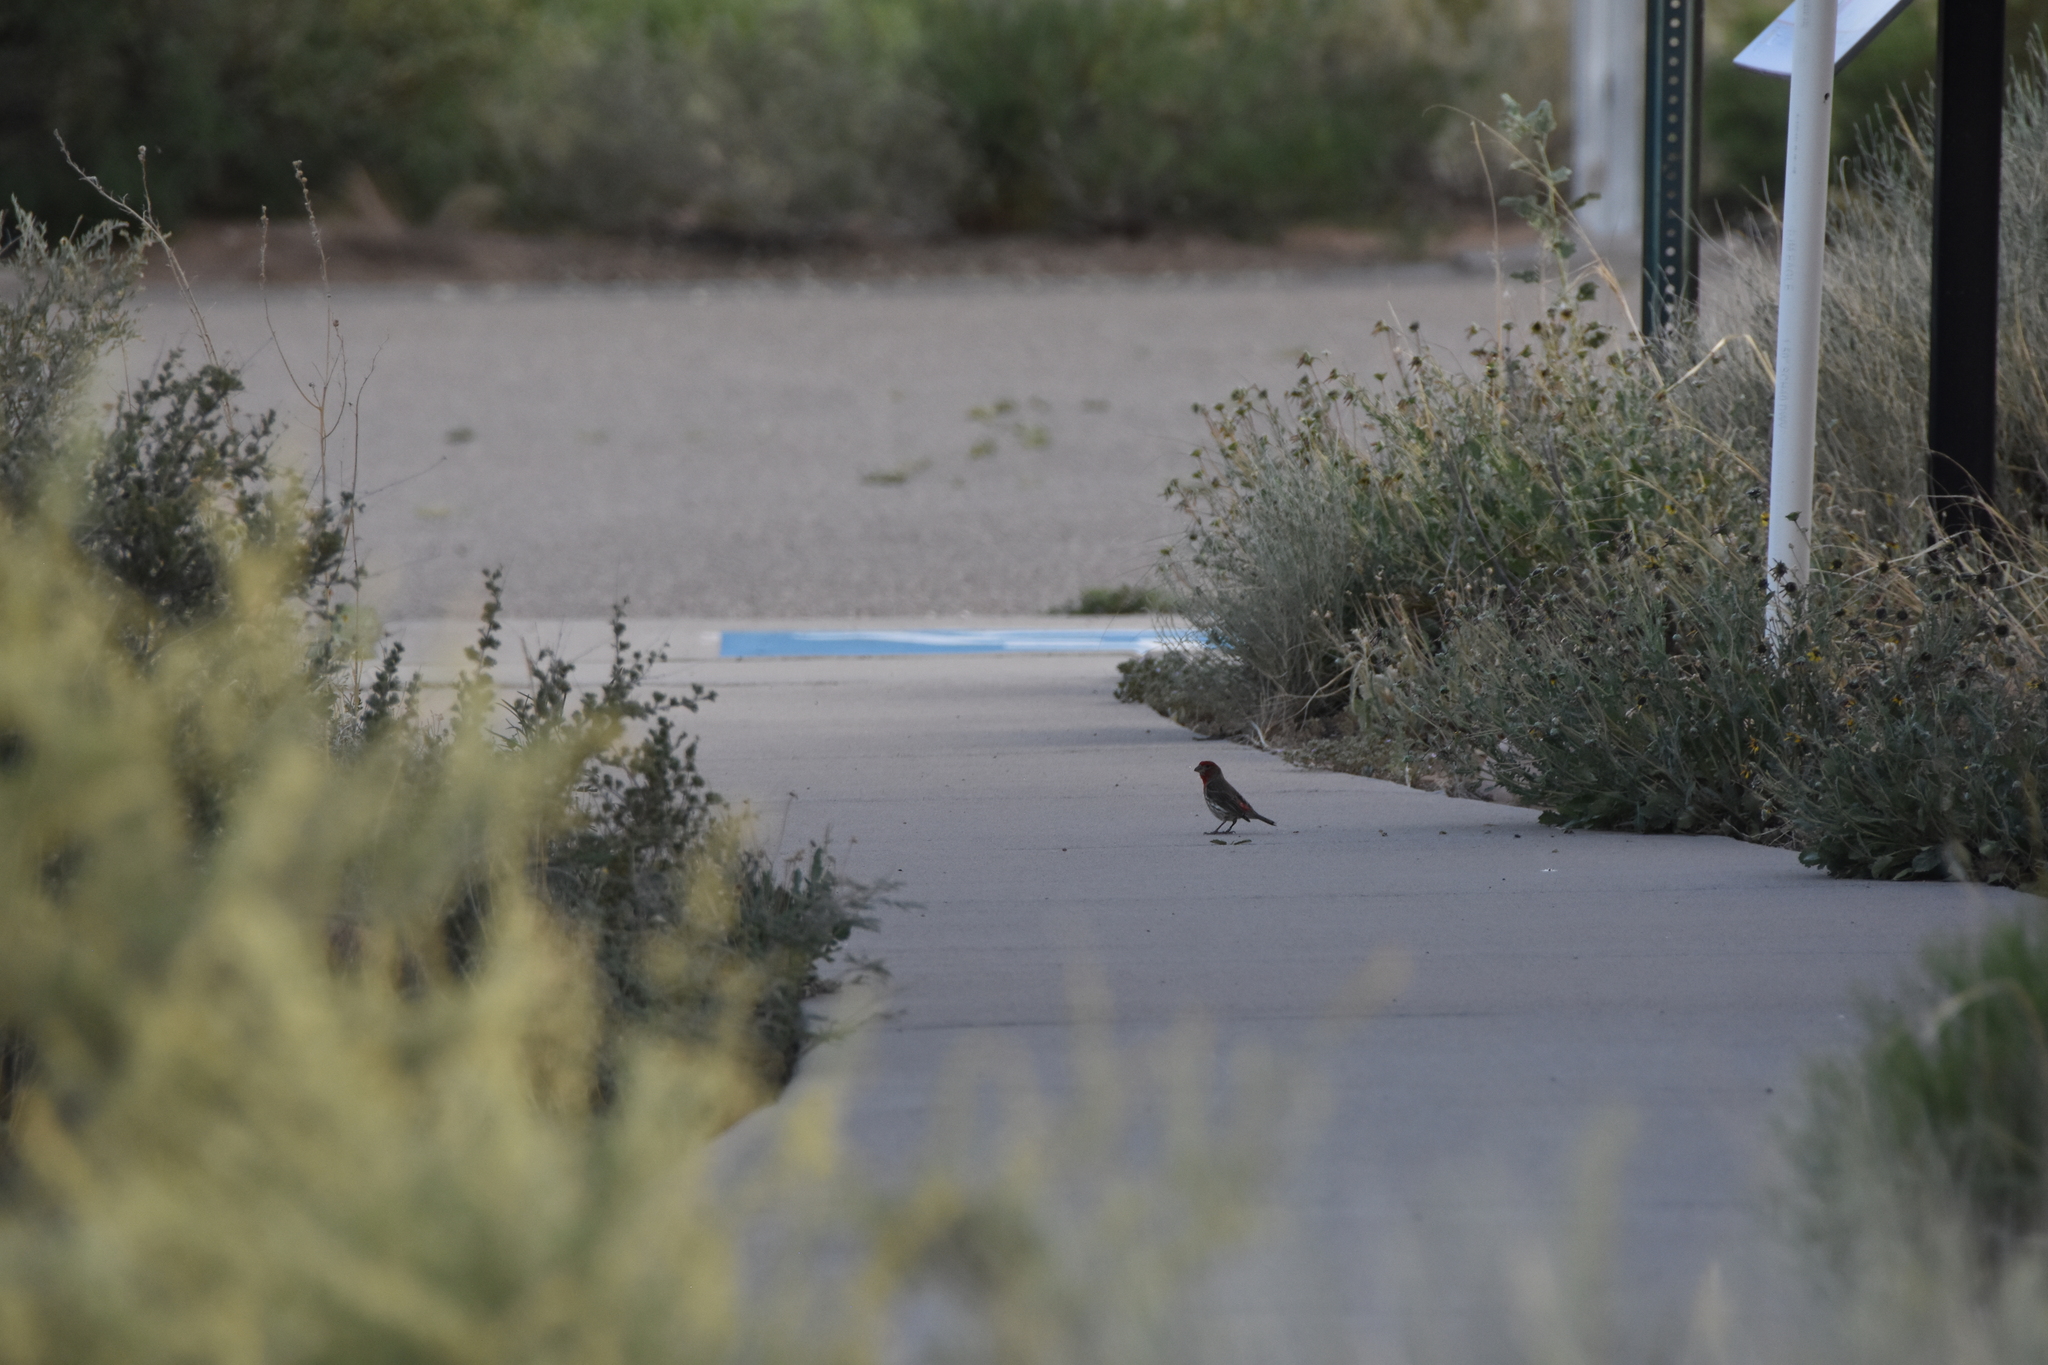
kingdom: Animalia
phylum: Chordata
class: Aves
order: Passeriformes
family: Fringillidae
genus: Haemorhous
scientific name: Haemorhous mexicanus
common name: House finch
